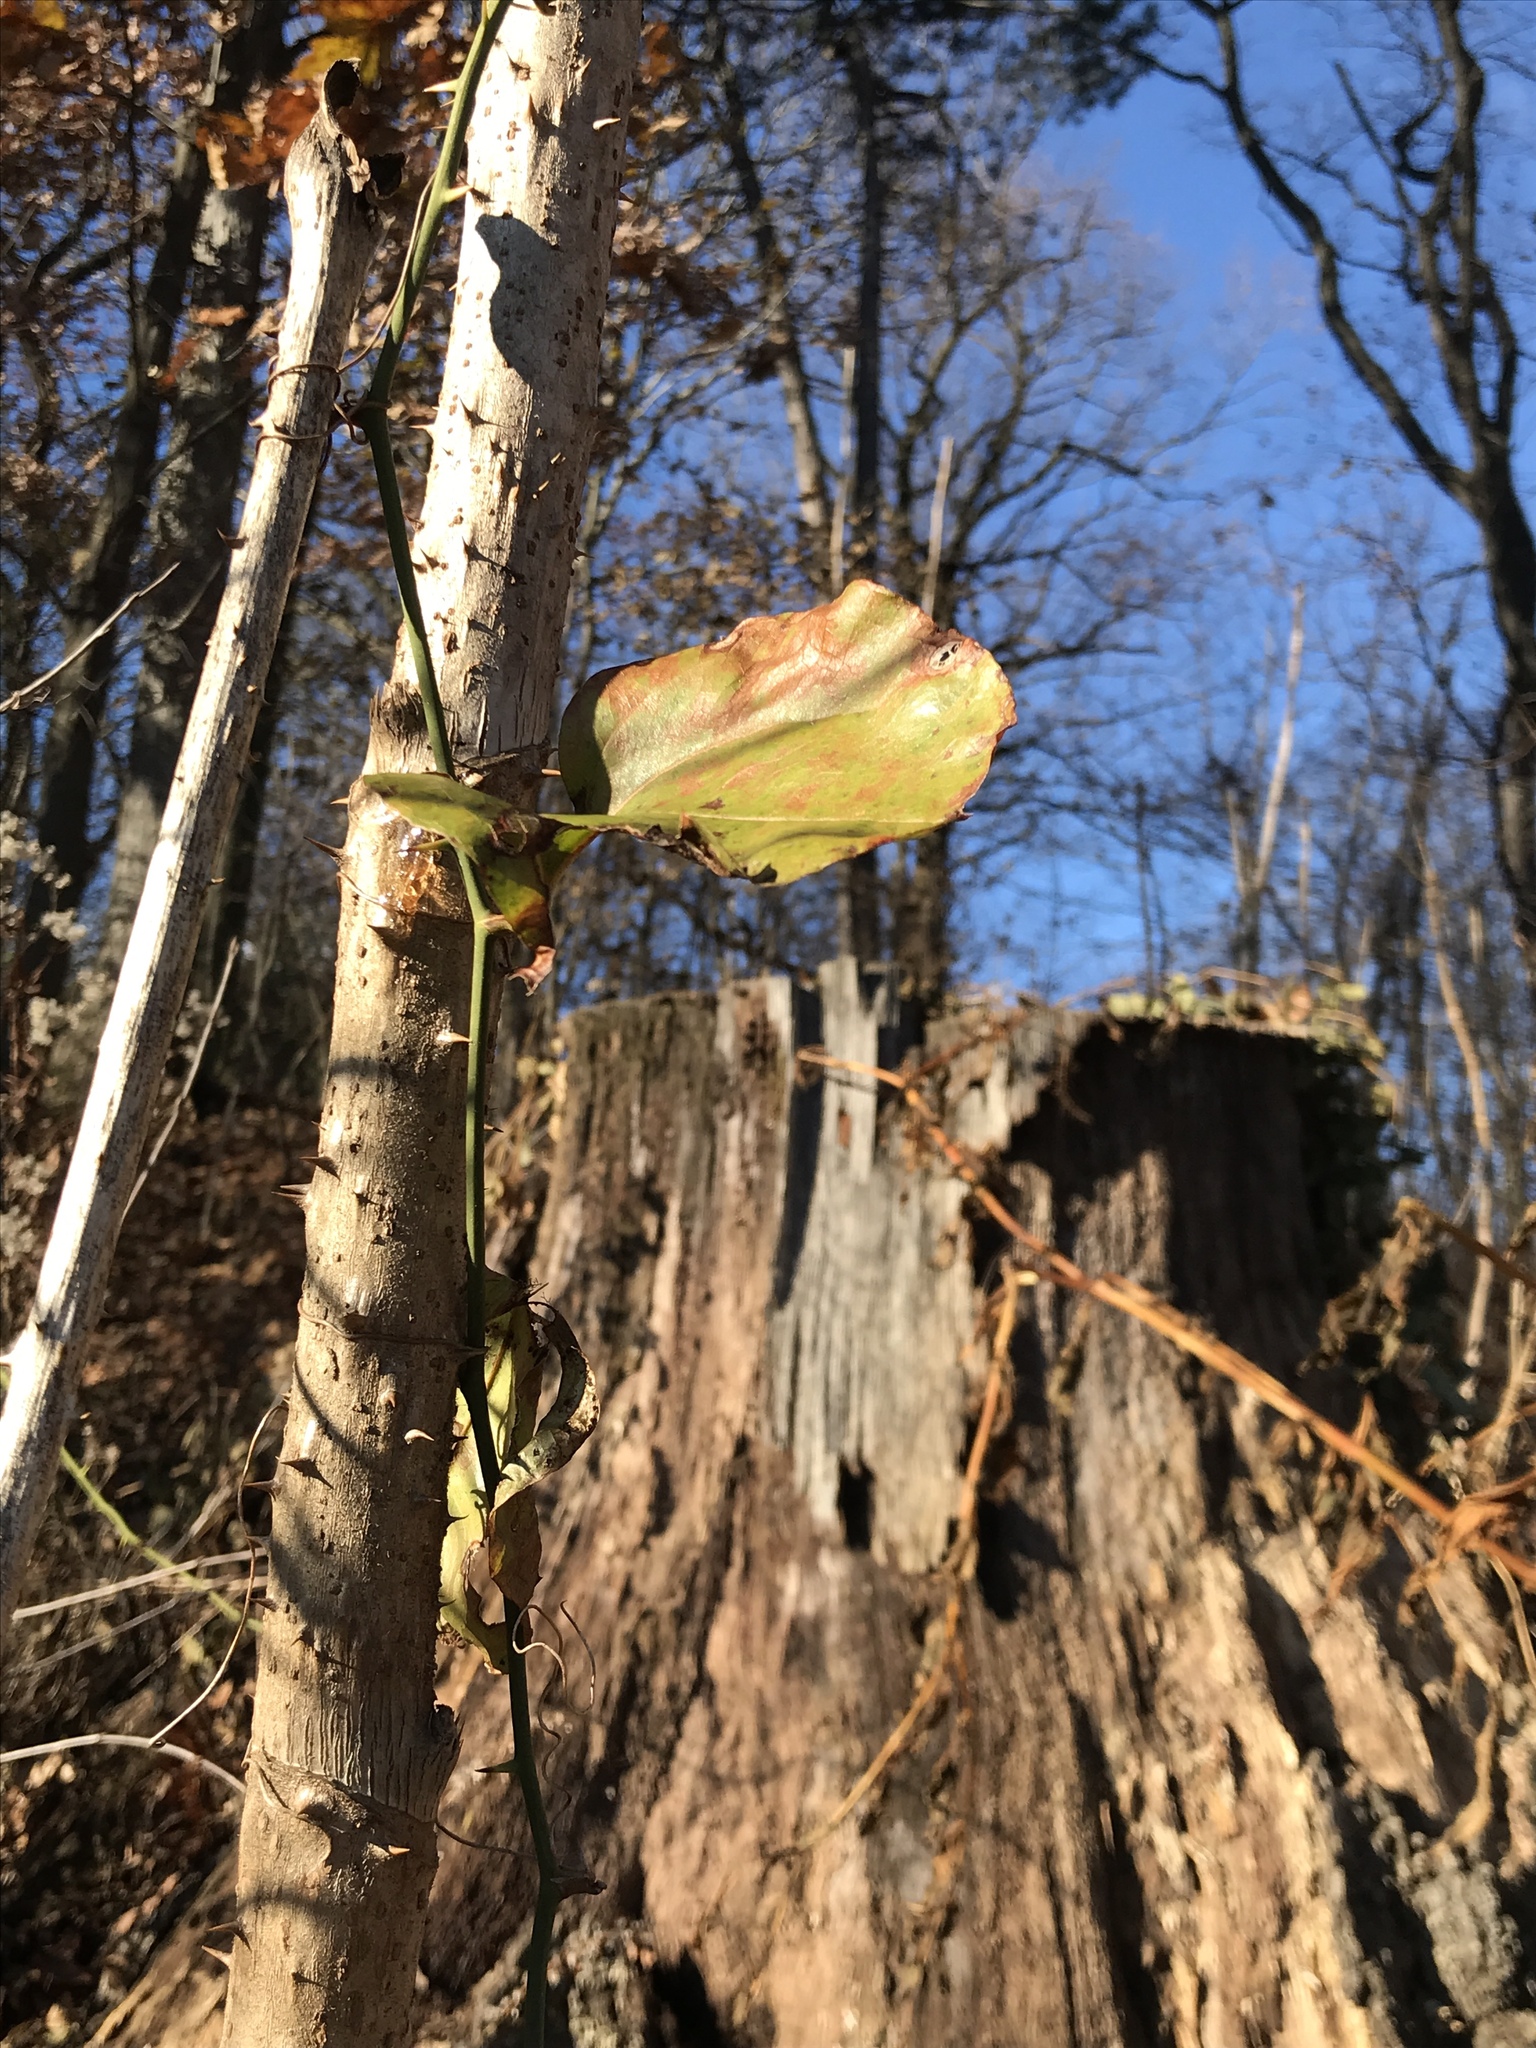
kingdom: Plantae
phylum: Tracheophyta
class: Liliopsida
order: Liliales
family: Smilacaceae
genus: Smilax
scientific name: Smilax rotundifolia
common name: Bullbriar
